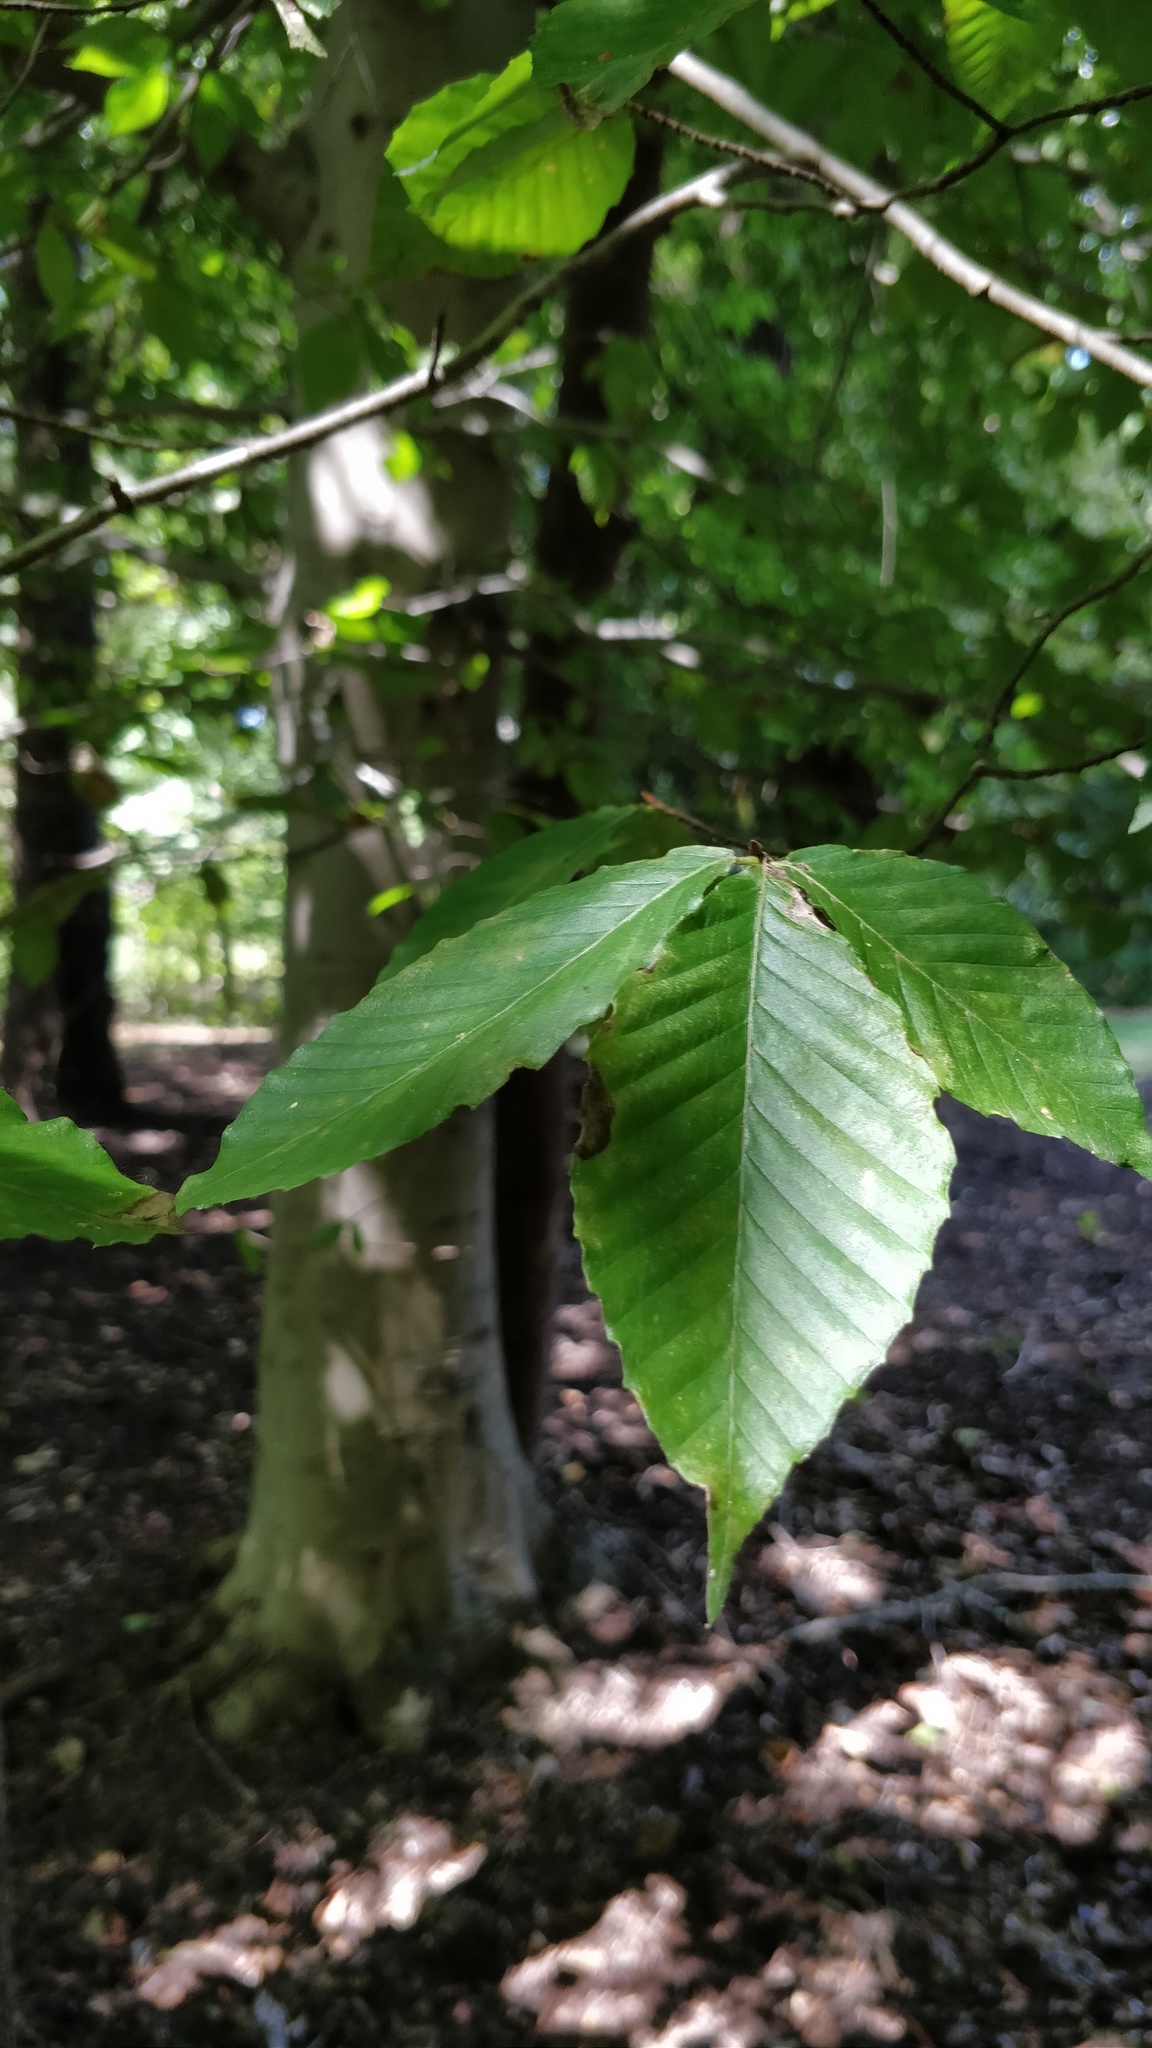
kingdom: Plantae
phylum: Tracheophyta
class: Magnoliopsida
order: Fagales
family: Fagaceae
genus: Fagus
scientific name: Fagus grandifolia
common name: American beech
